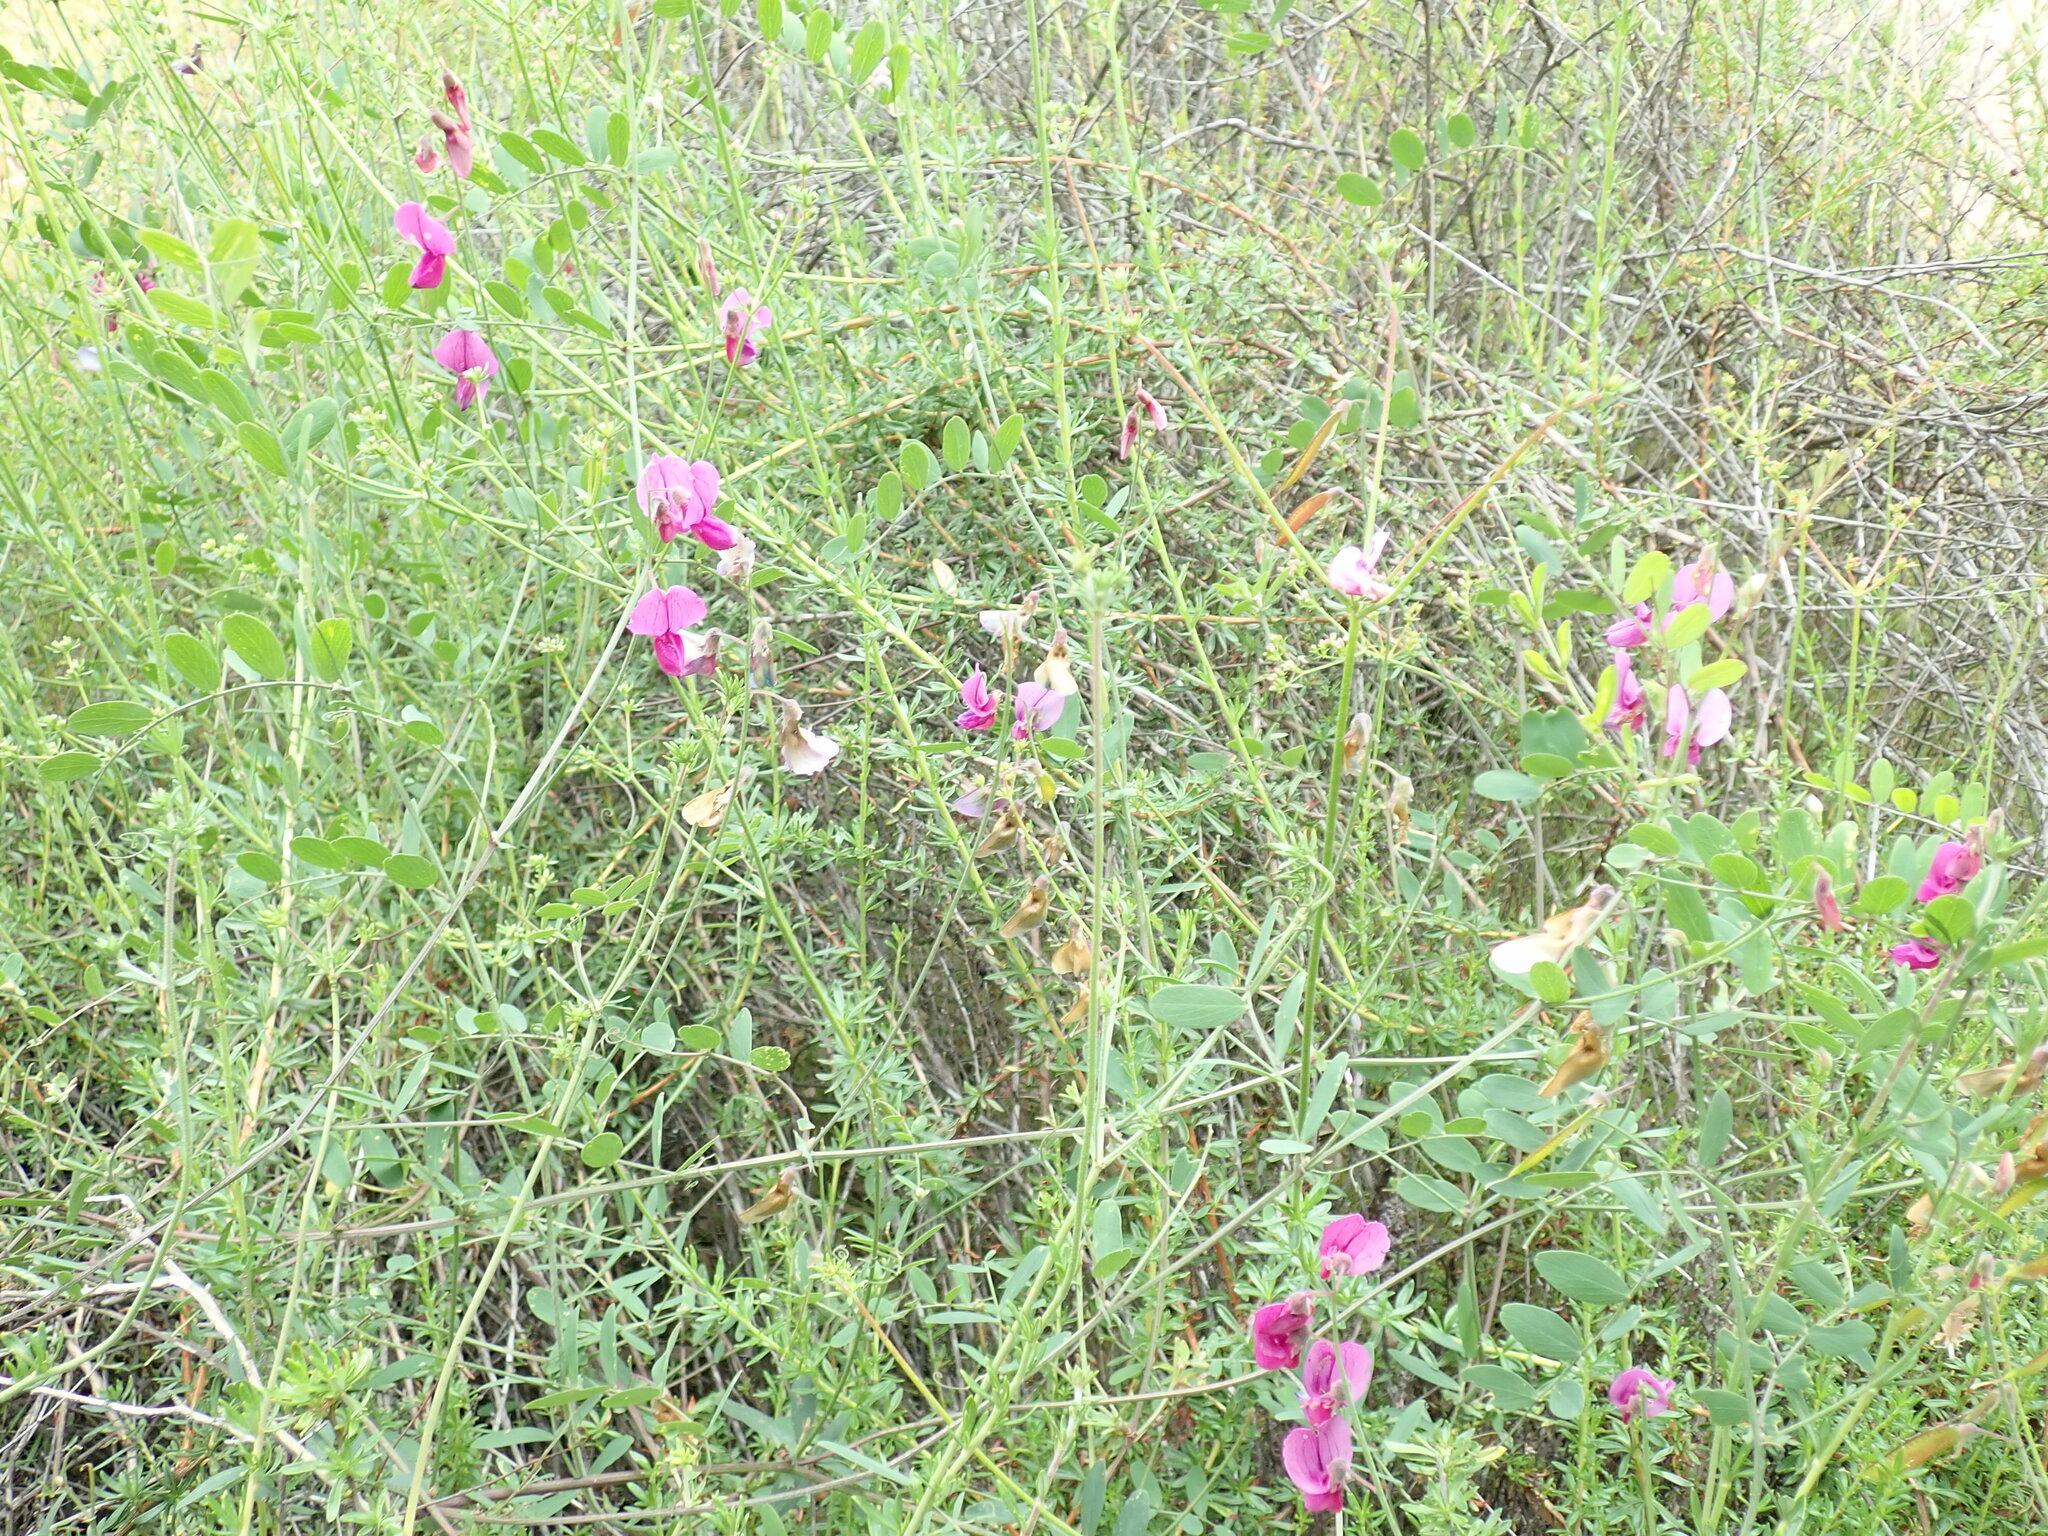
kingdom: Plantae
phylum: Tracheophyta
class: Magnoliopsida
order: Fabales
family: Fabaceae
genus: Lathyrus
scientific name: Lathyrus vestitus
